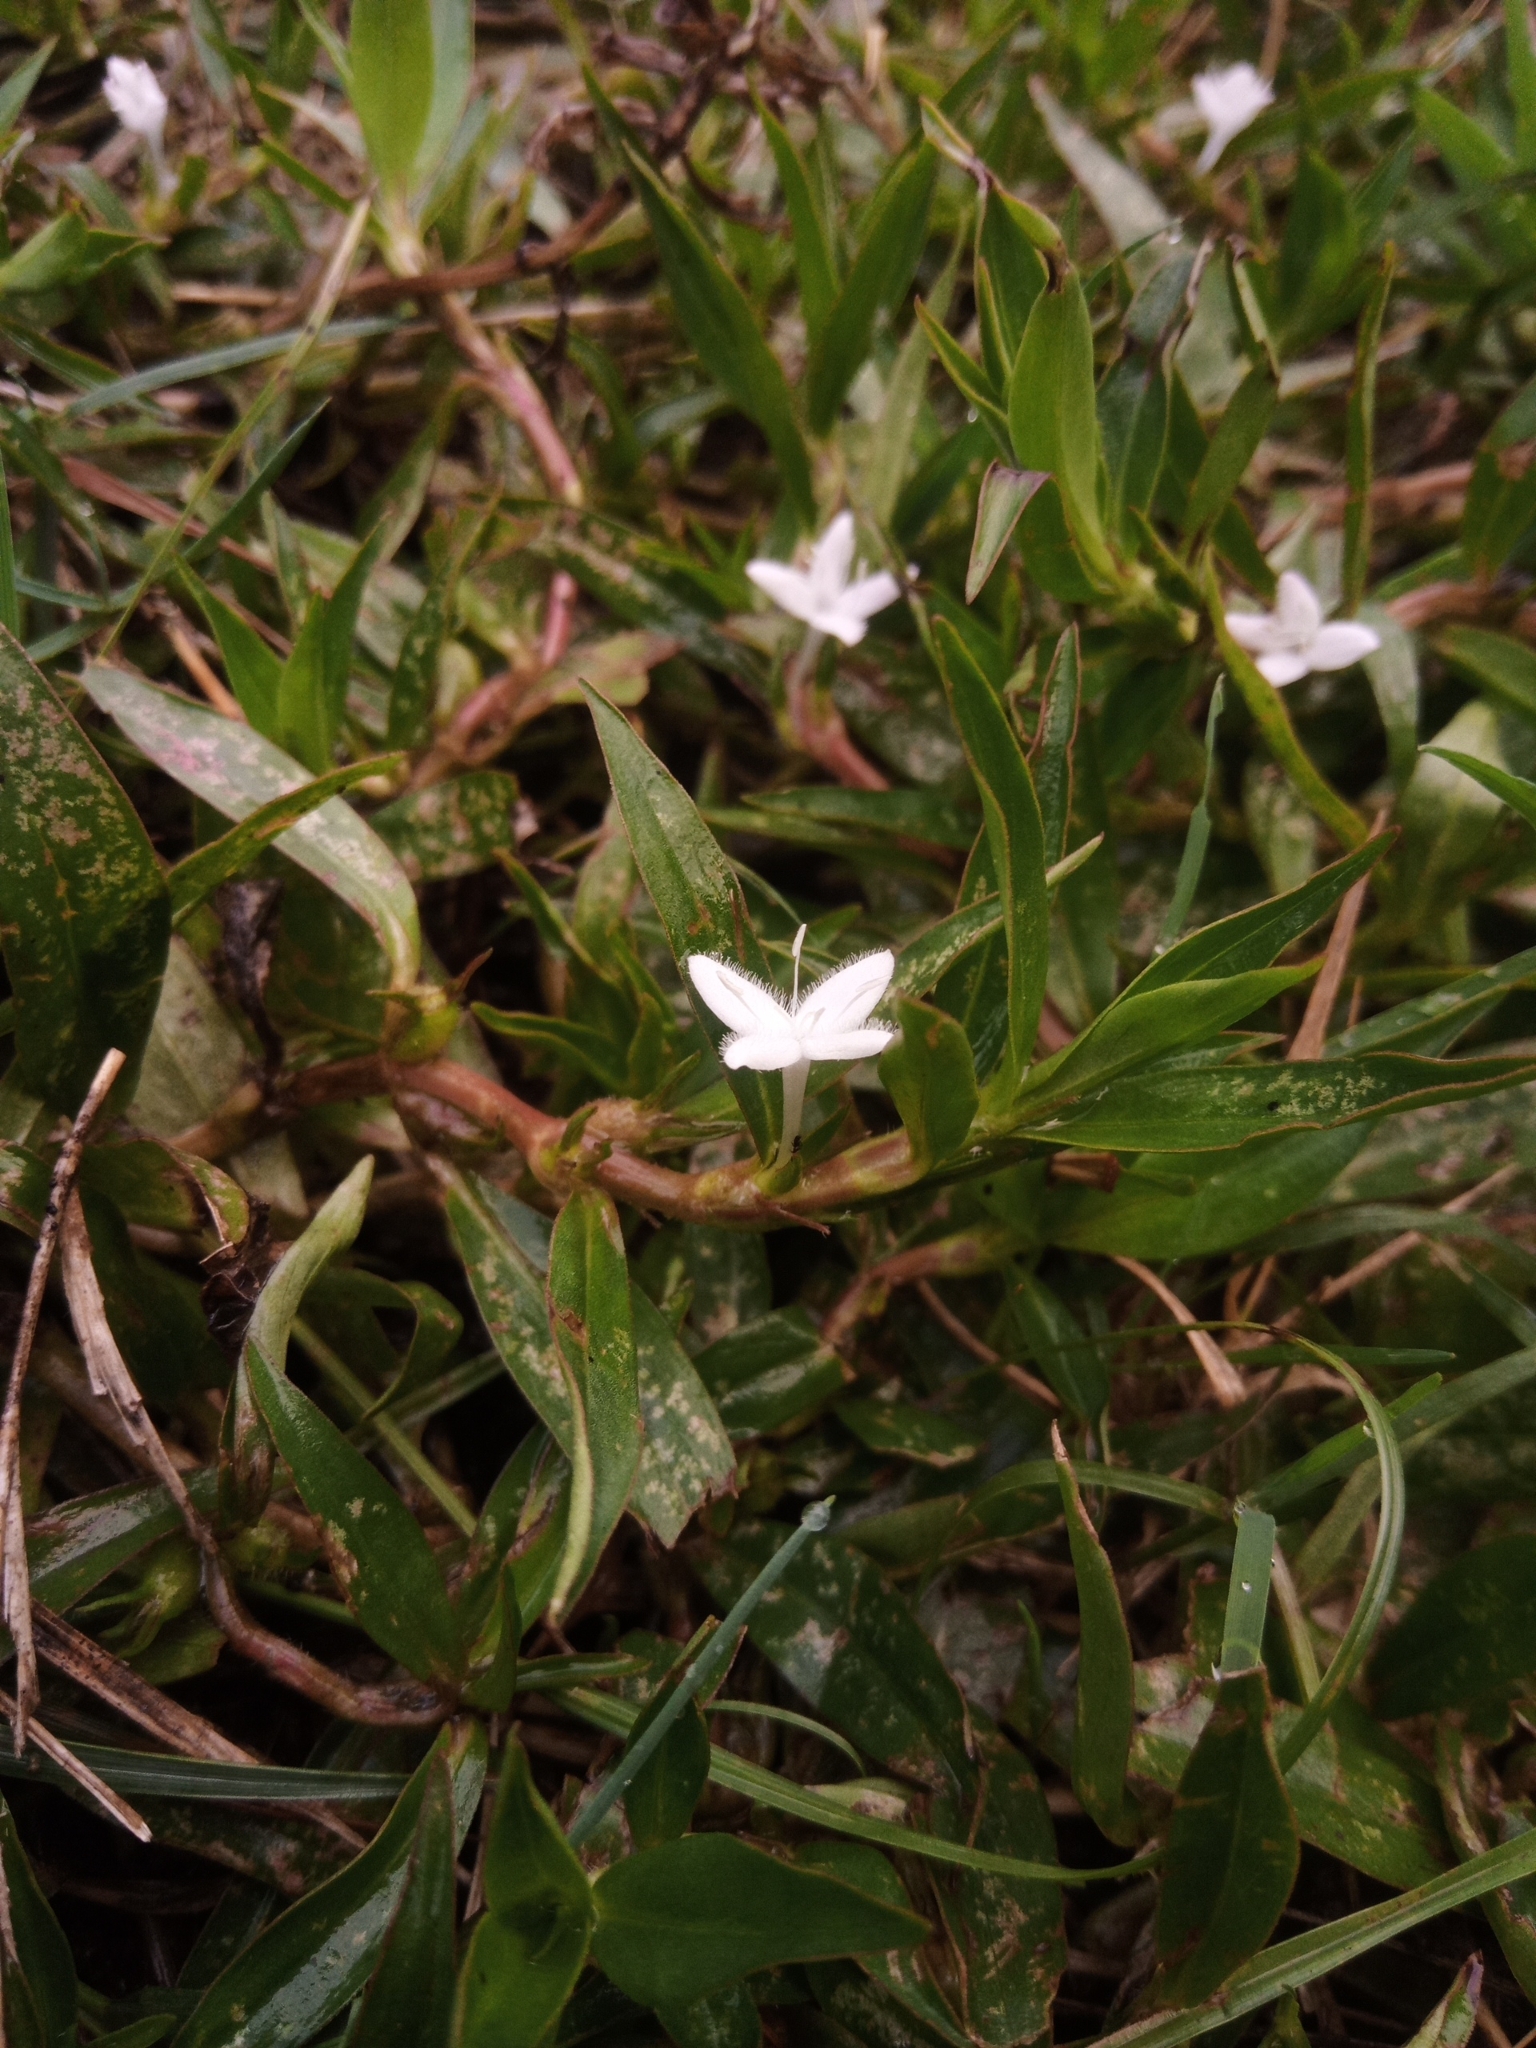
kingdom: Plantae
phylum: Tracheophyta
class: Magnoliopsida
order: Gentianales
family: Rubiaceae
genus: Diodia
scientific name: Diodia virginiana
